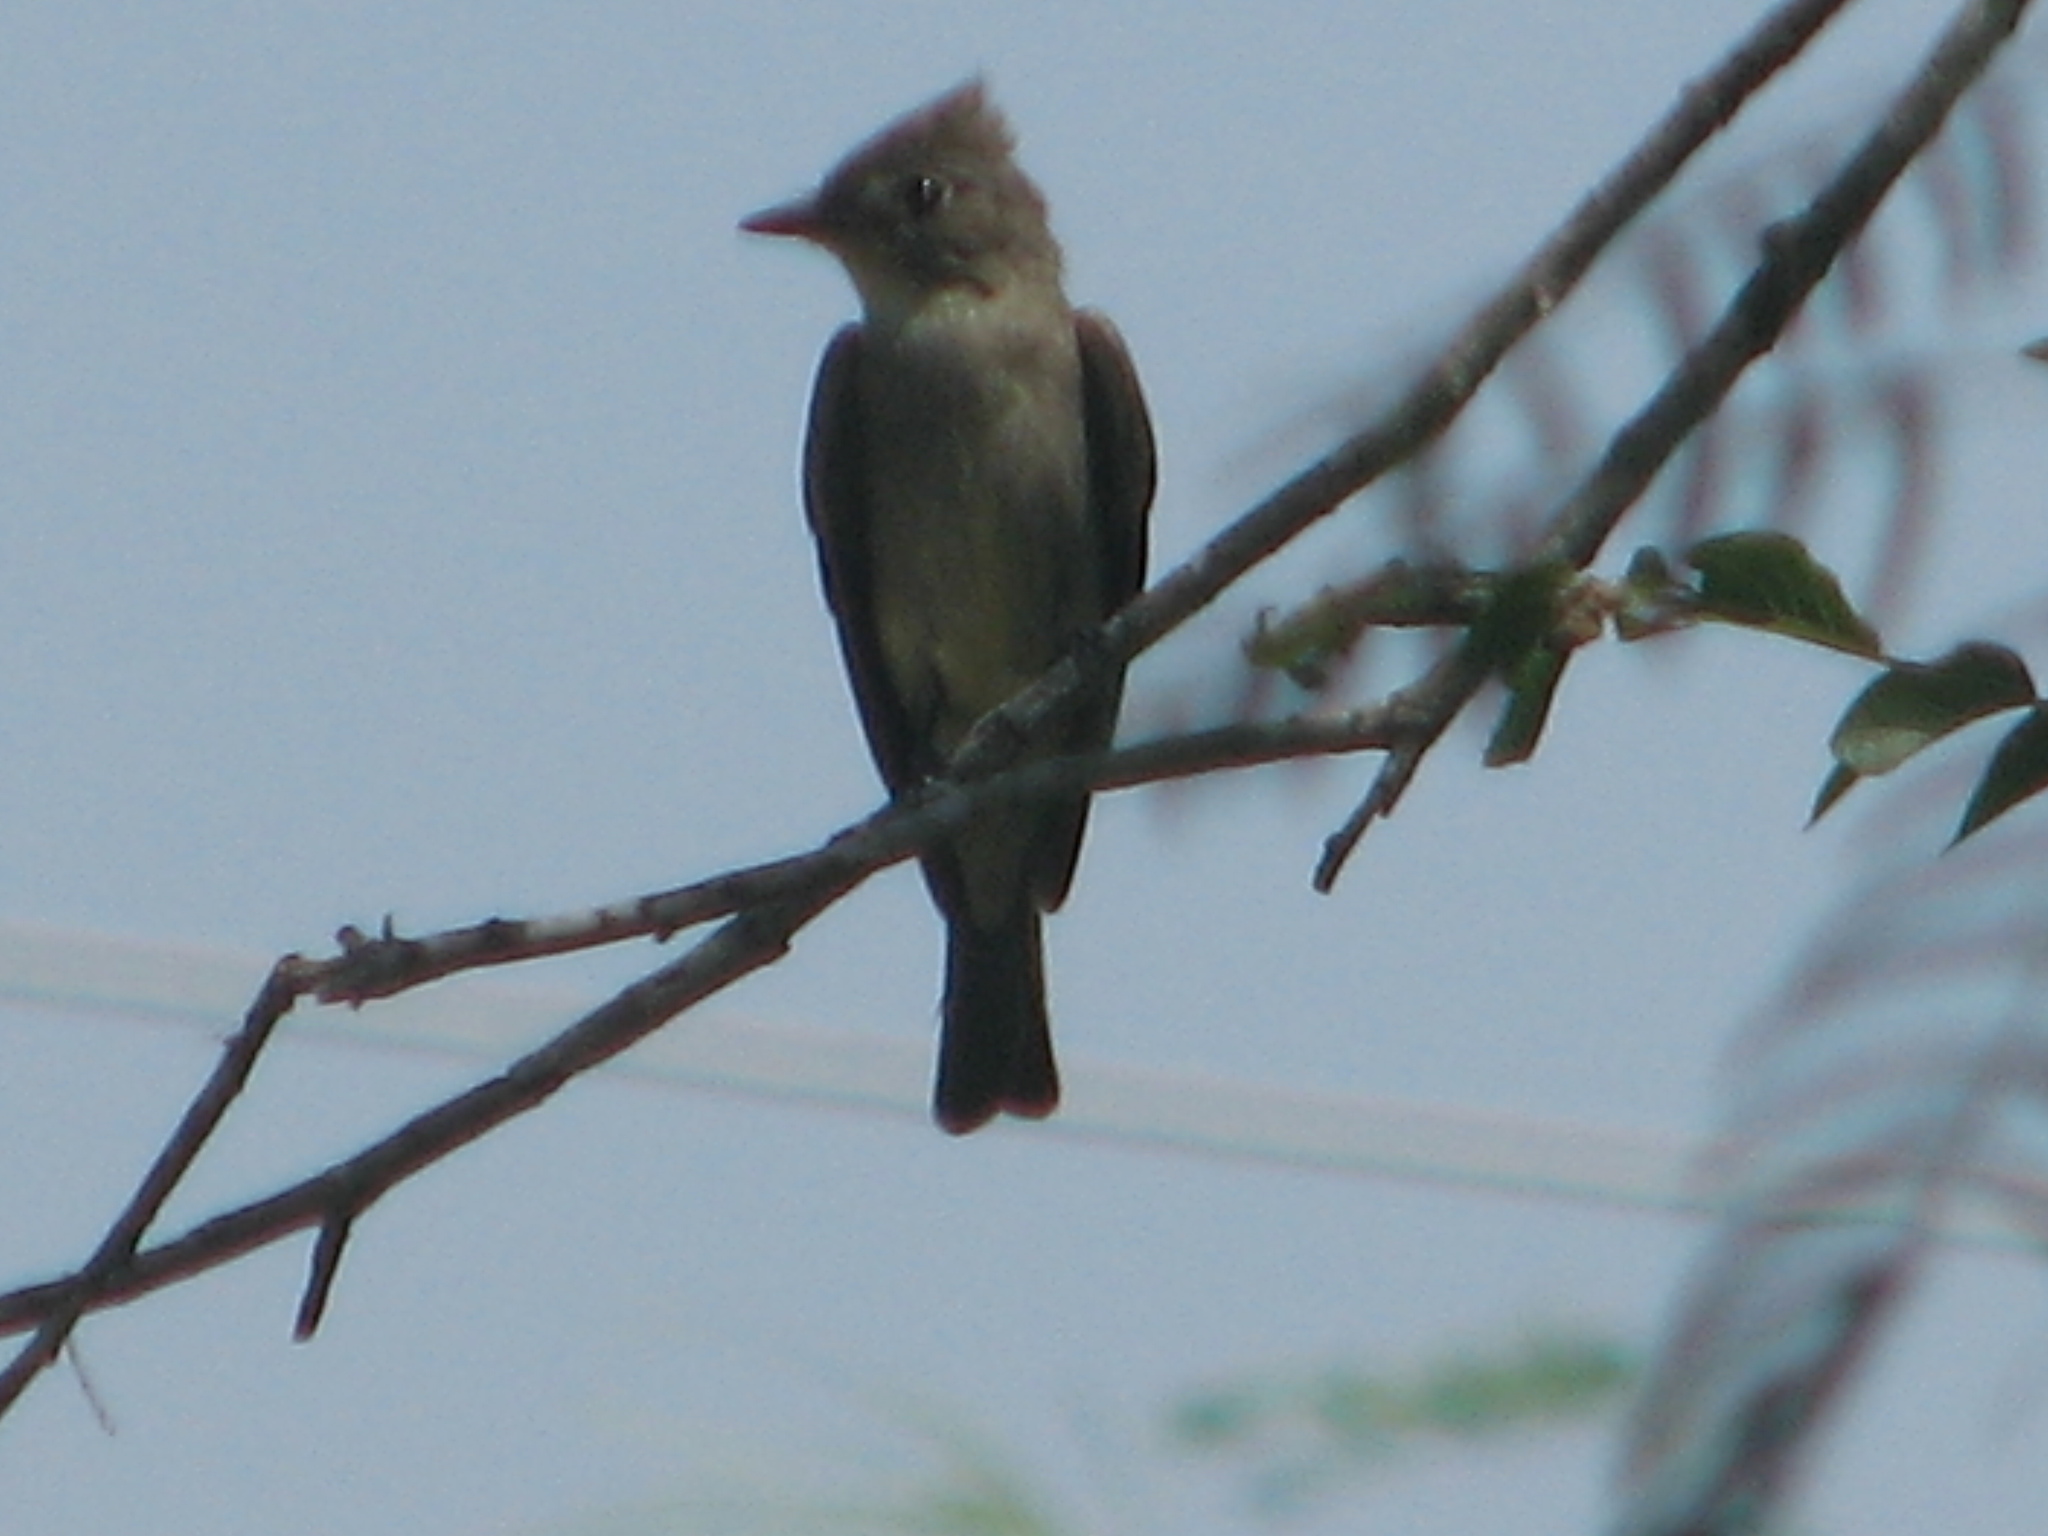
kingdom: Animalia
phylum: Chordata
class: Aves
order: Passeriformes
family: Tyrannidae
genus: Contopus
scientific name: Contopus pertinax
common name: Greater pewee
